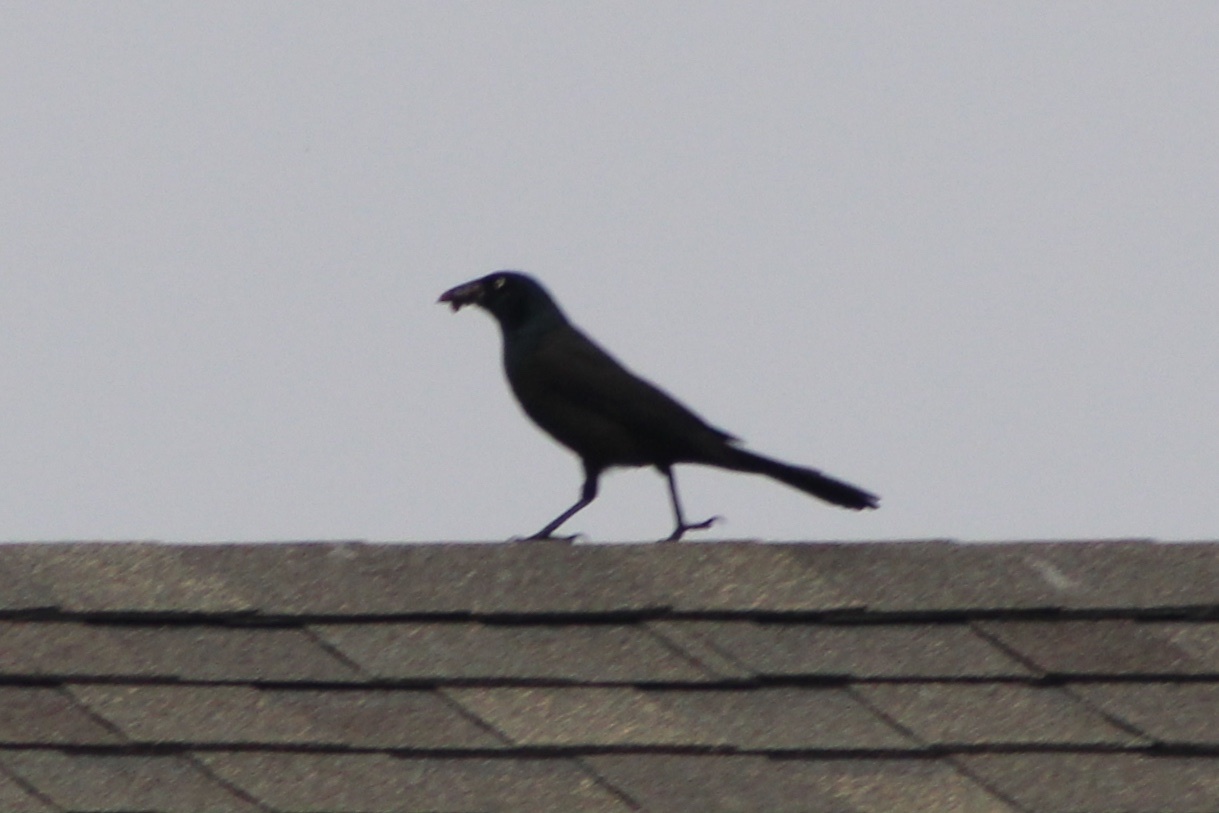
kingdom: Animalia
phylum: Chordata
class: Aves
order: Passeriformes
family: Icteridae
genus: Quiscalus
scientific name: Quiscalus quiscula
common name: Common grackle
